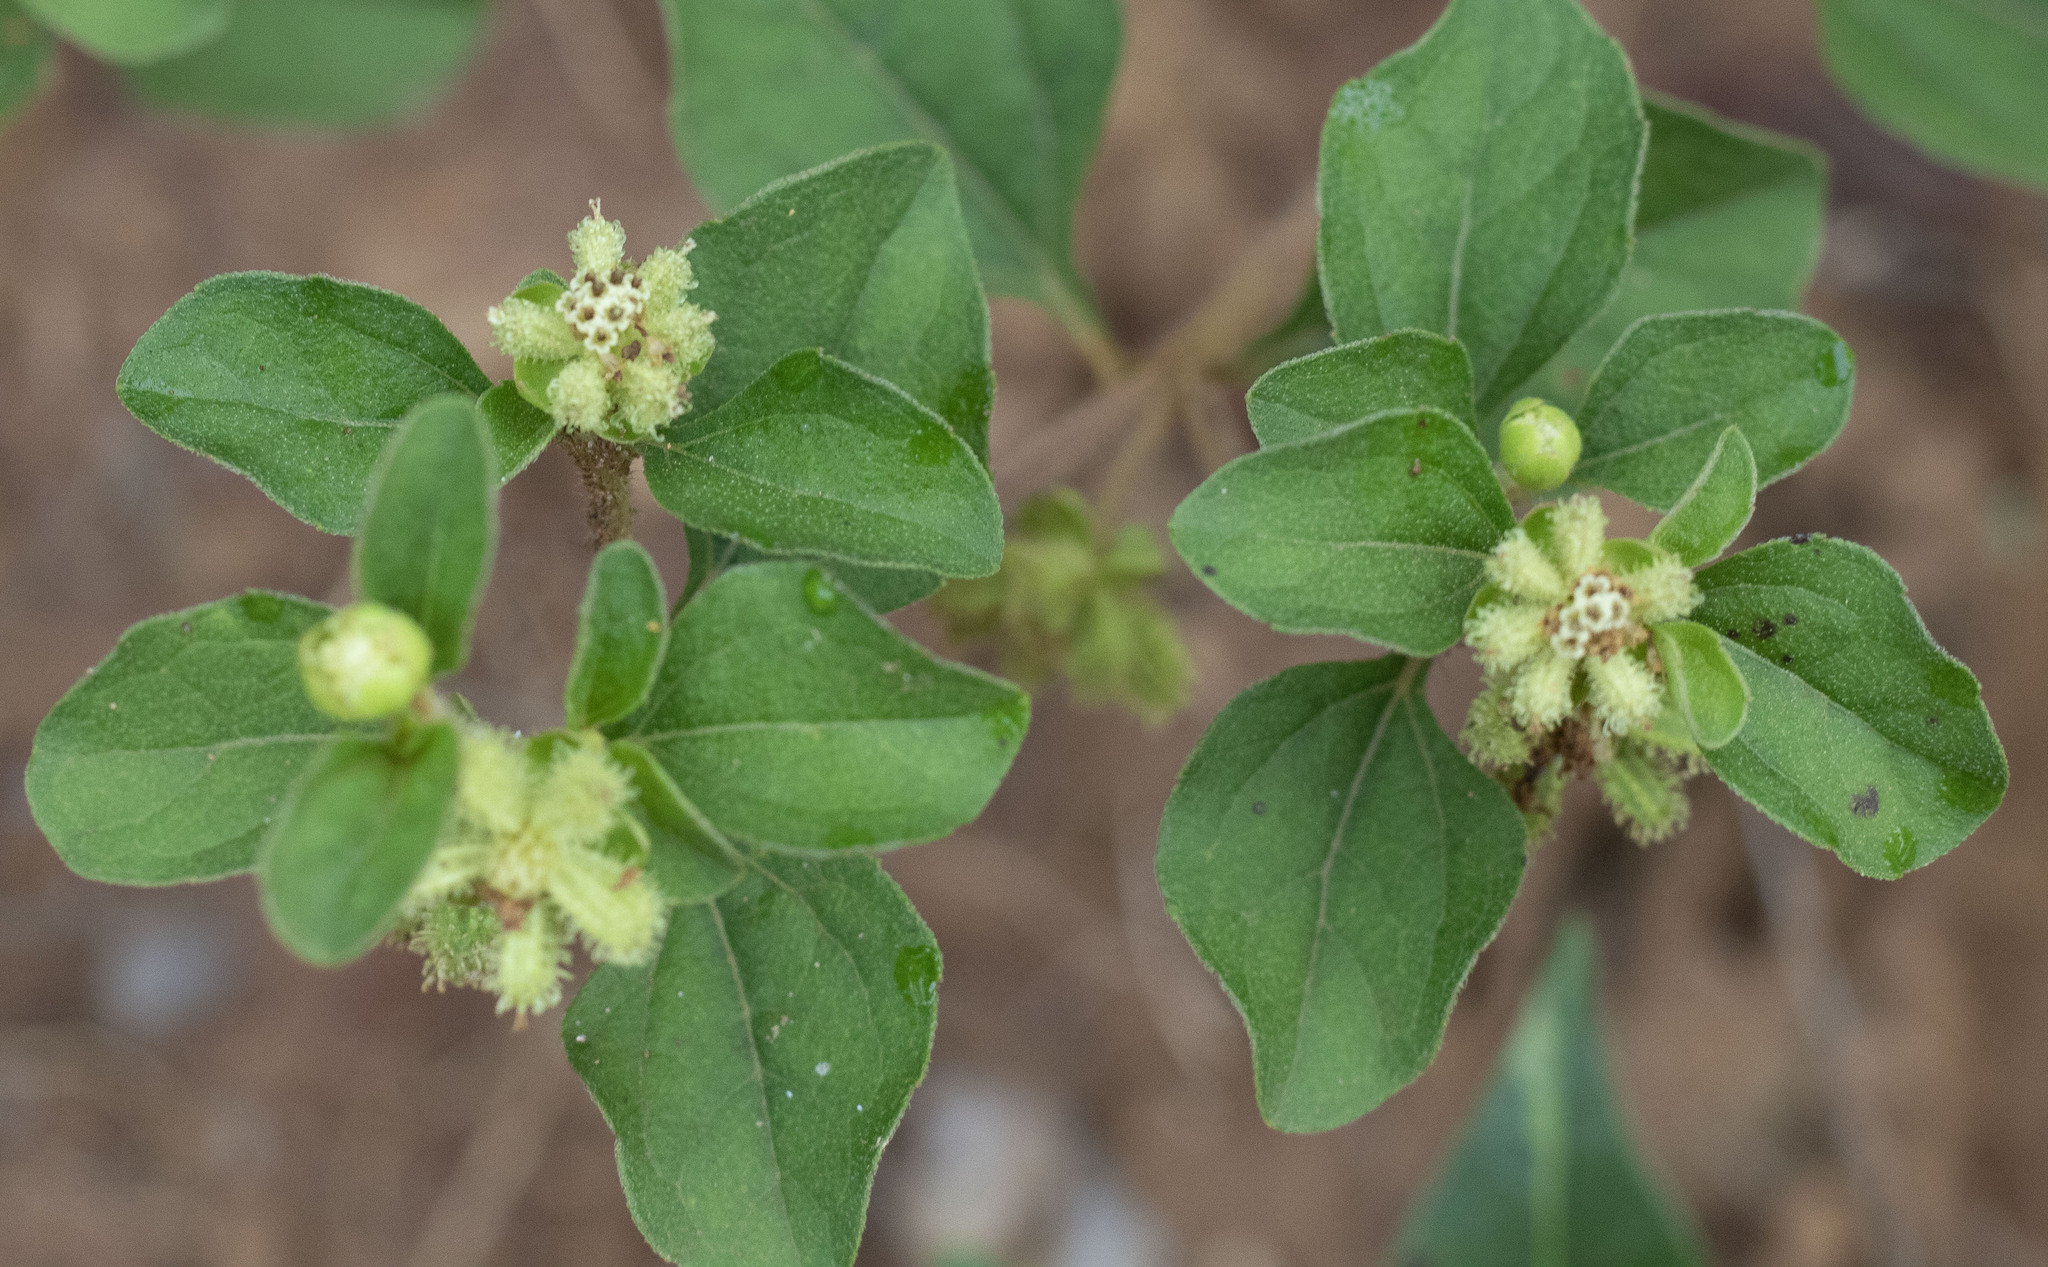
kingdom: Plantae
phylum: Tracheophyta
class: Magnoliopsida
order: Asterales
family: Asteraceae
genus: Acanthospermum
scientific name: Acanthospermum australe
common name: Paraguayan starbur
